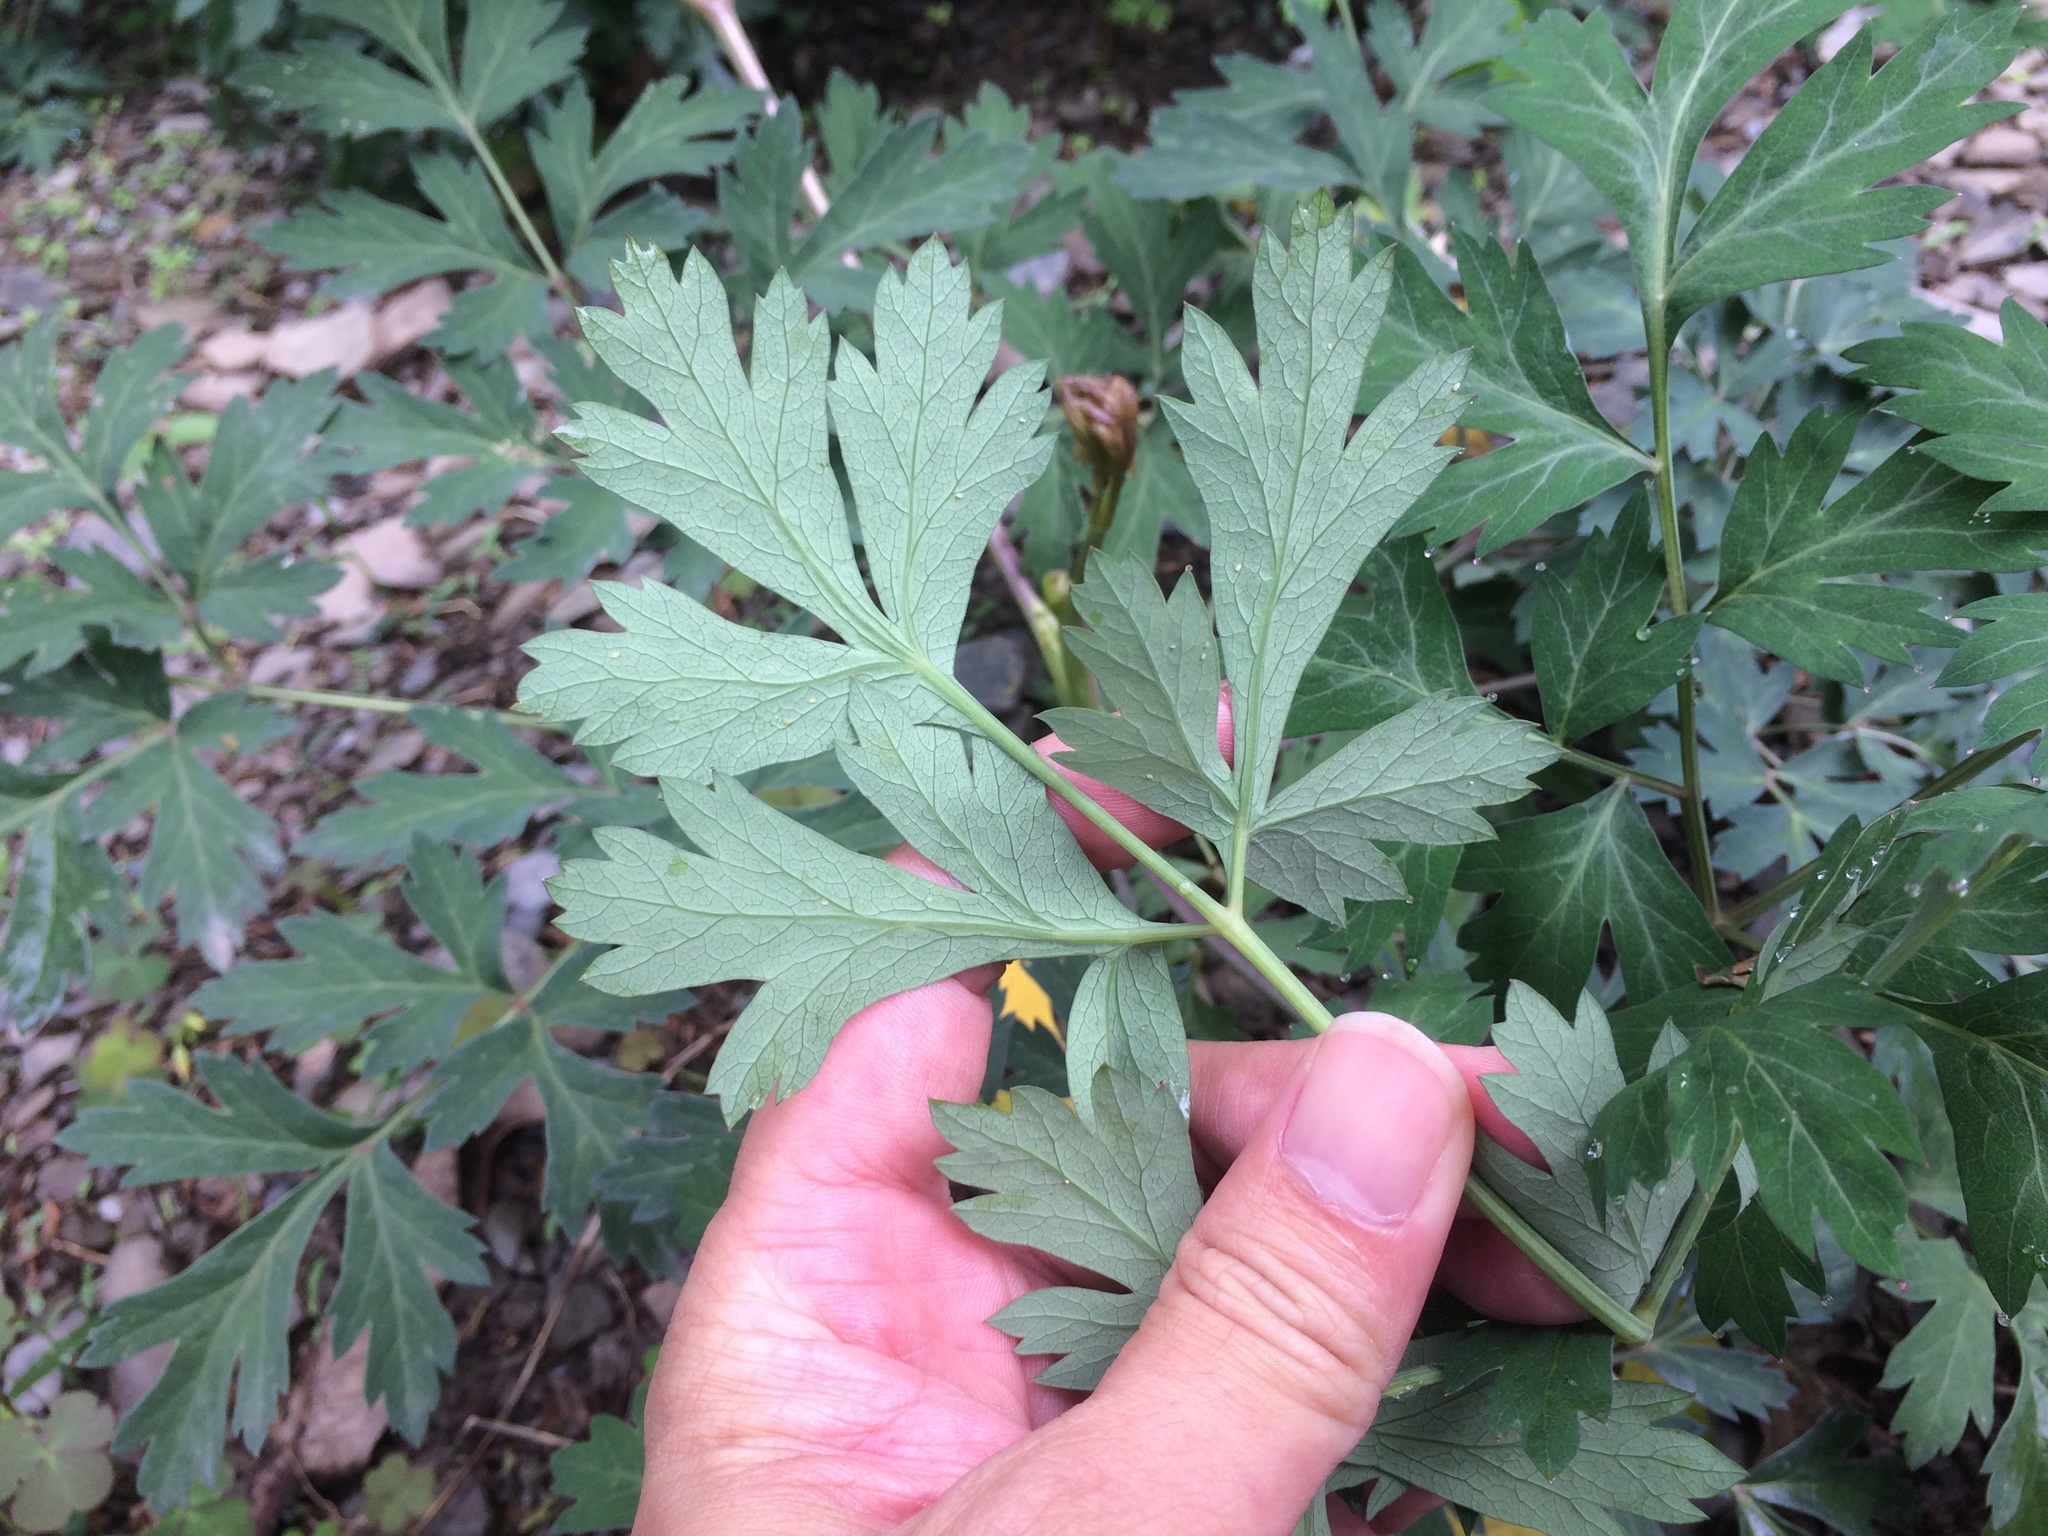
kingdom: Plantae
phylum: Tracheophyta
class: Magnoliopsida
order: Apiales
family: Apiaceae
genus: Kitagawia
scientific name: Kitagawia formosana
